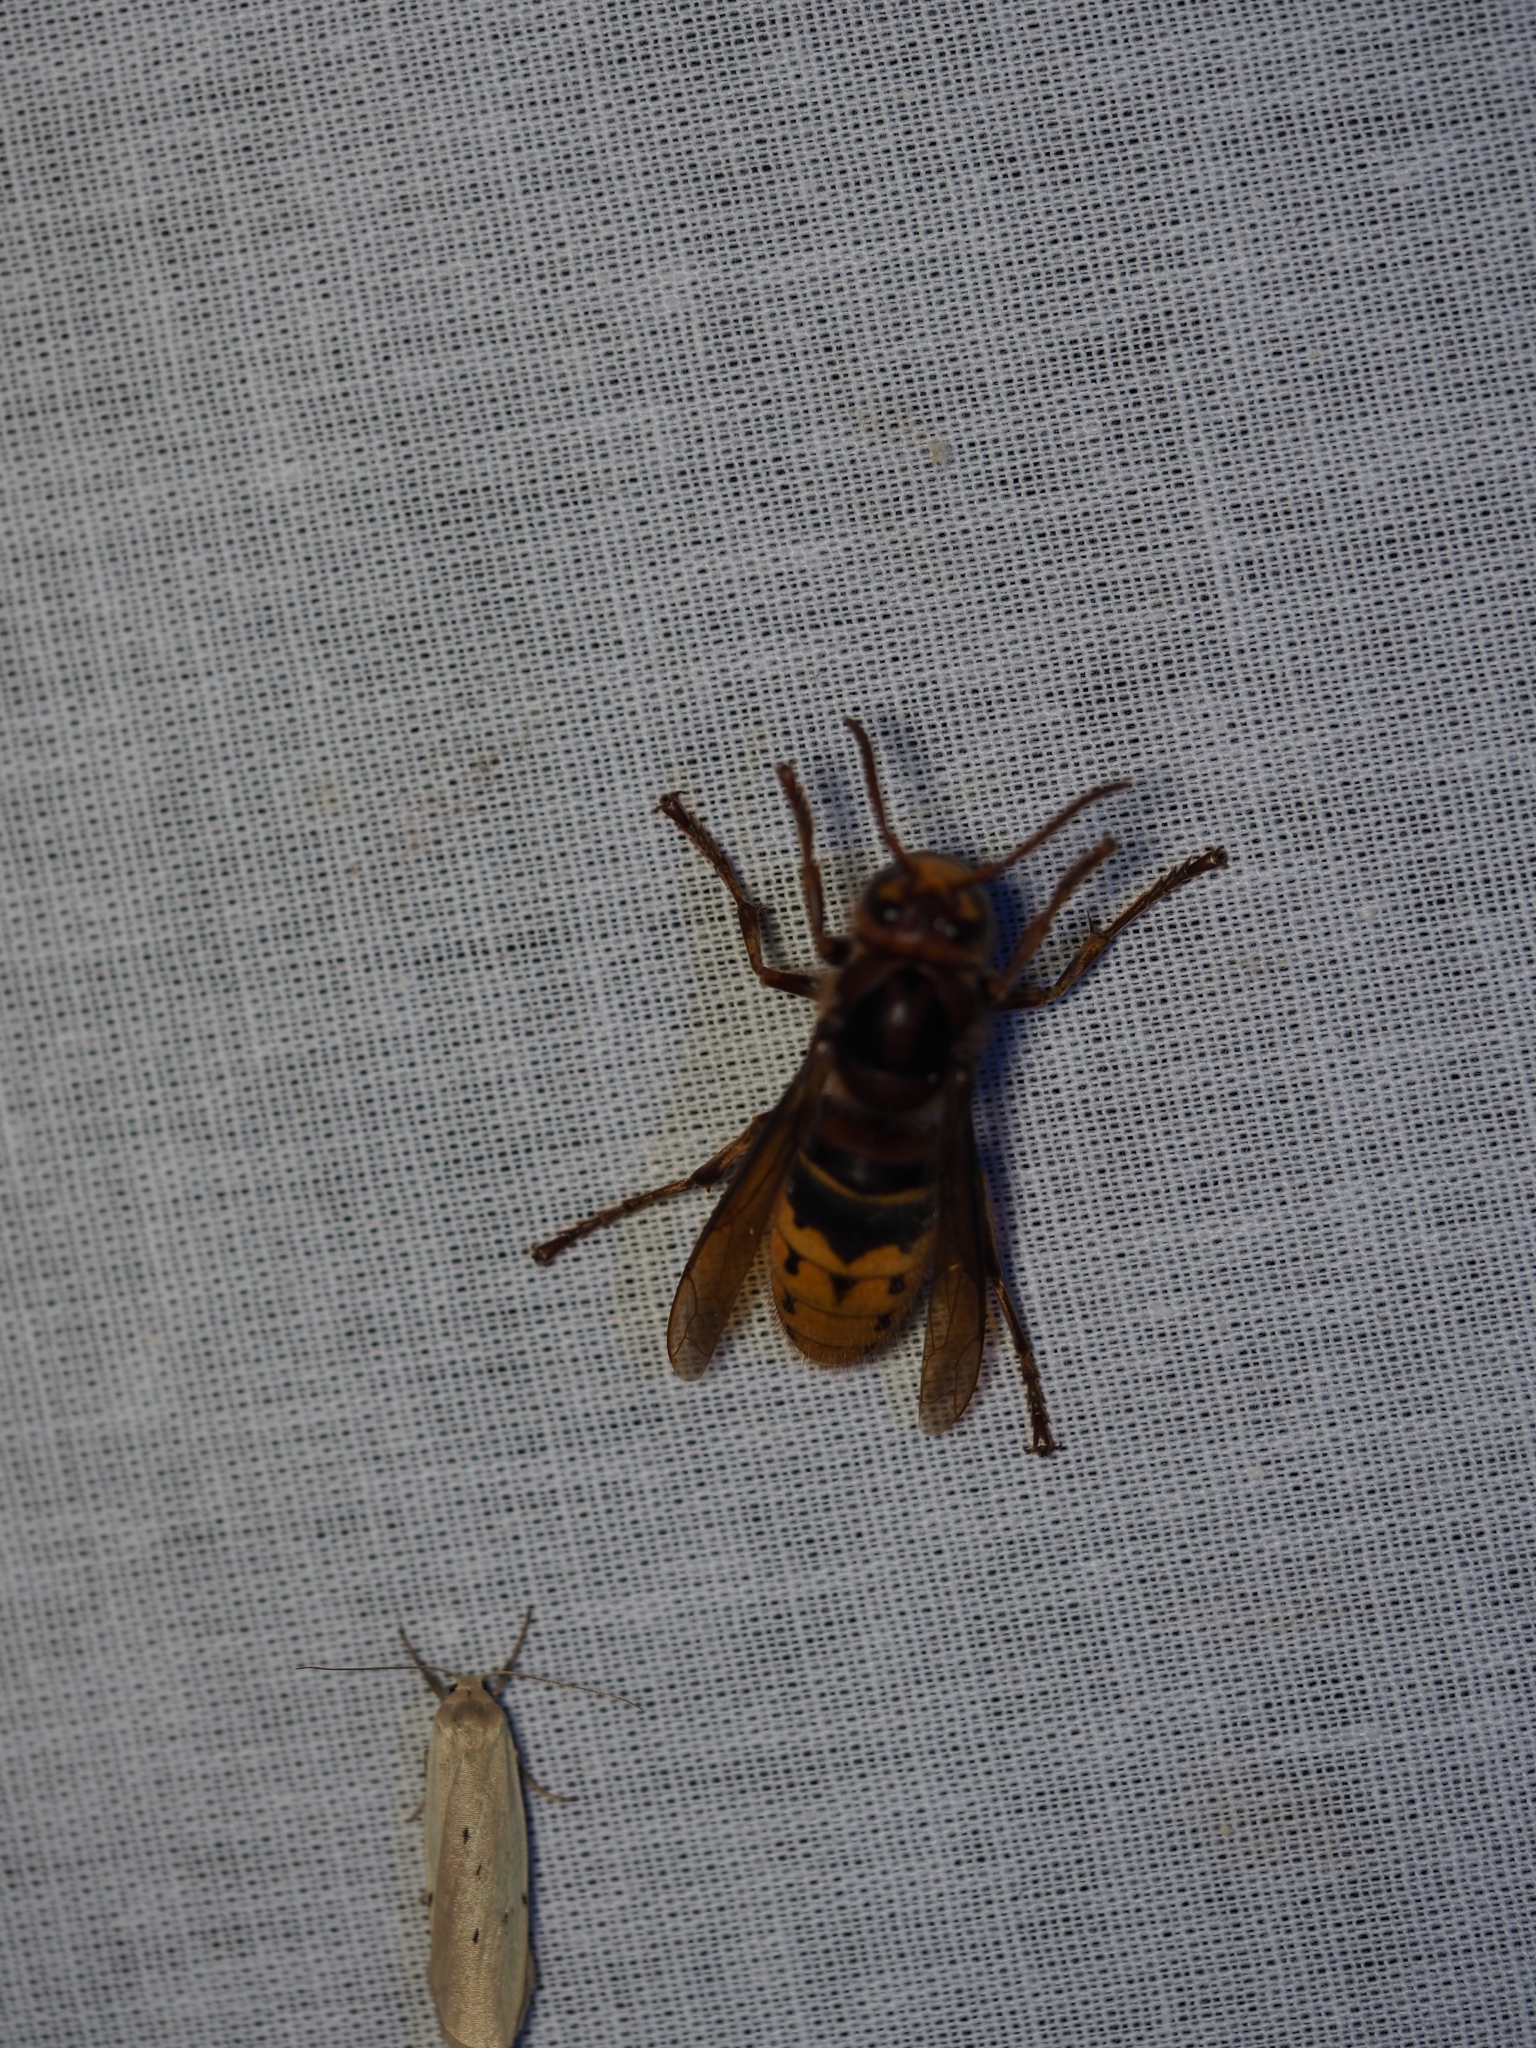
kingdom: Animalia
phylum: Arthropoda
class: Insecta
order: Hymenoptera
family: Vespidae
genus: Vespa
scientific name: Vespa crabro
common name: Hornet
